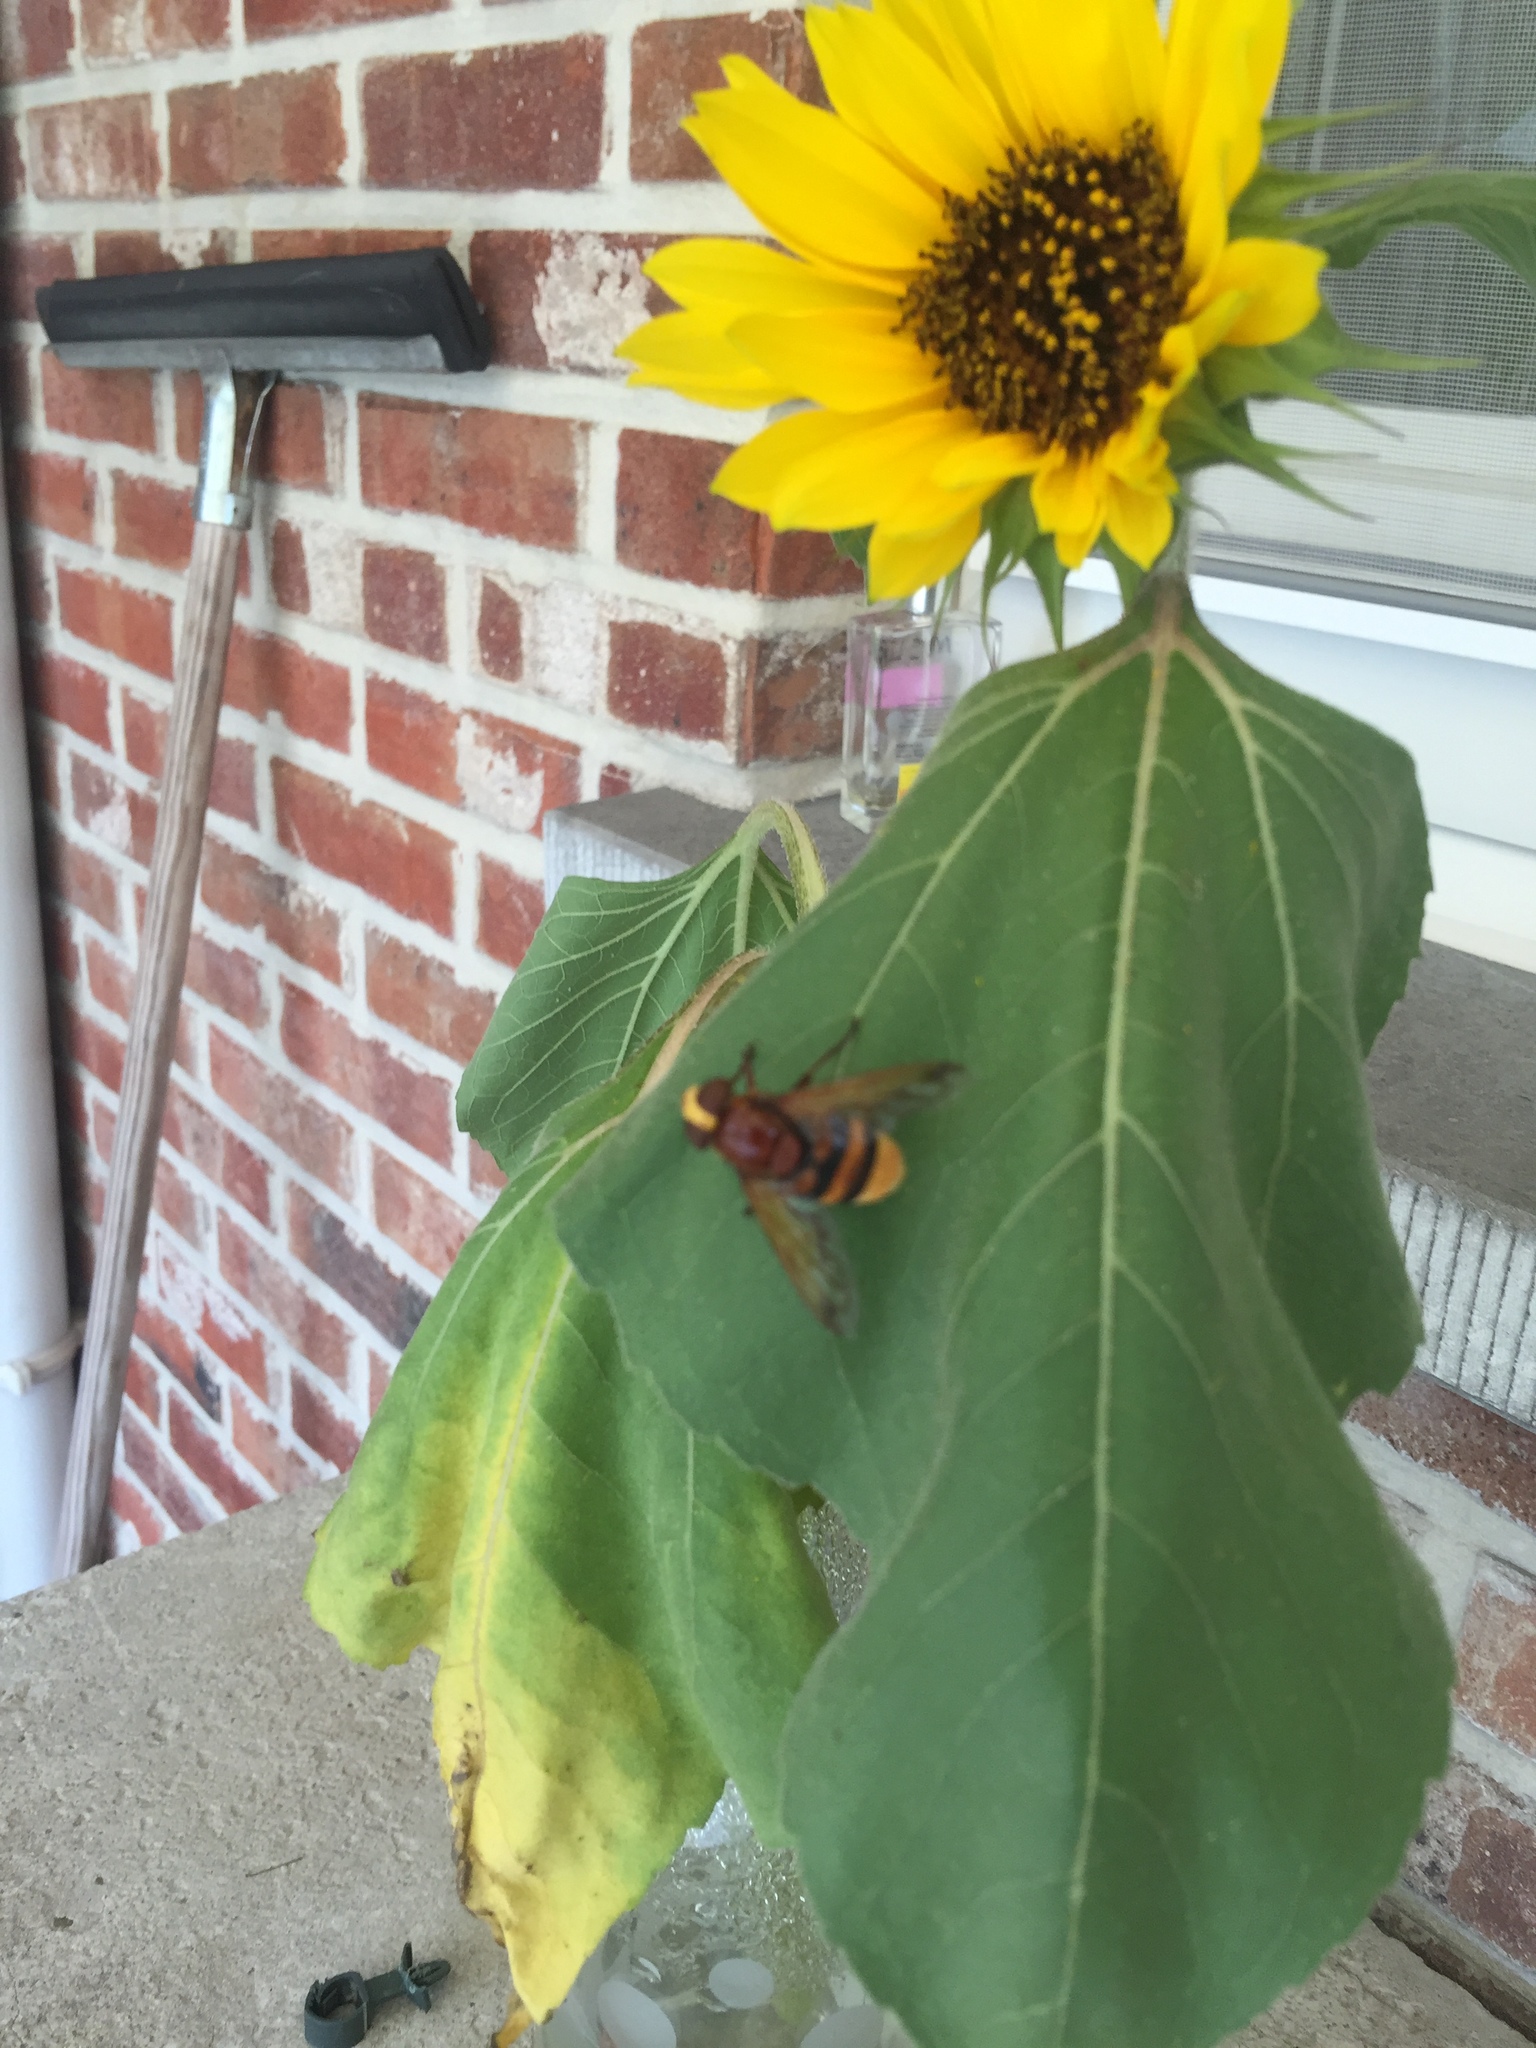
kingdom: Animalia
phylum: Arthropoda
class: Insecta
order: Diptera
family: Syrphidae
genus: Volucella
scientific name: Volucella zonaria
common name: Hornet hoverfly
